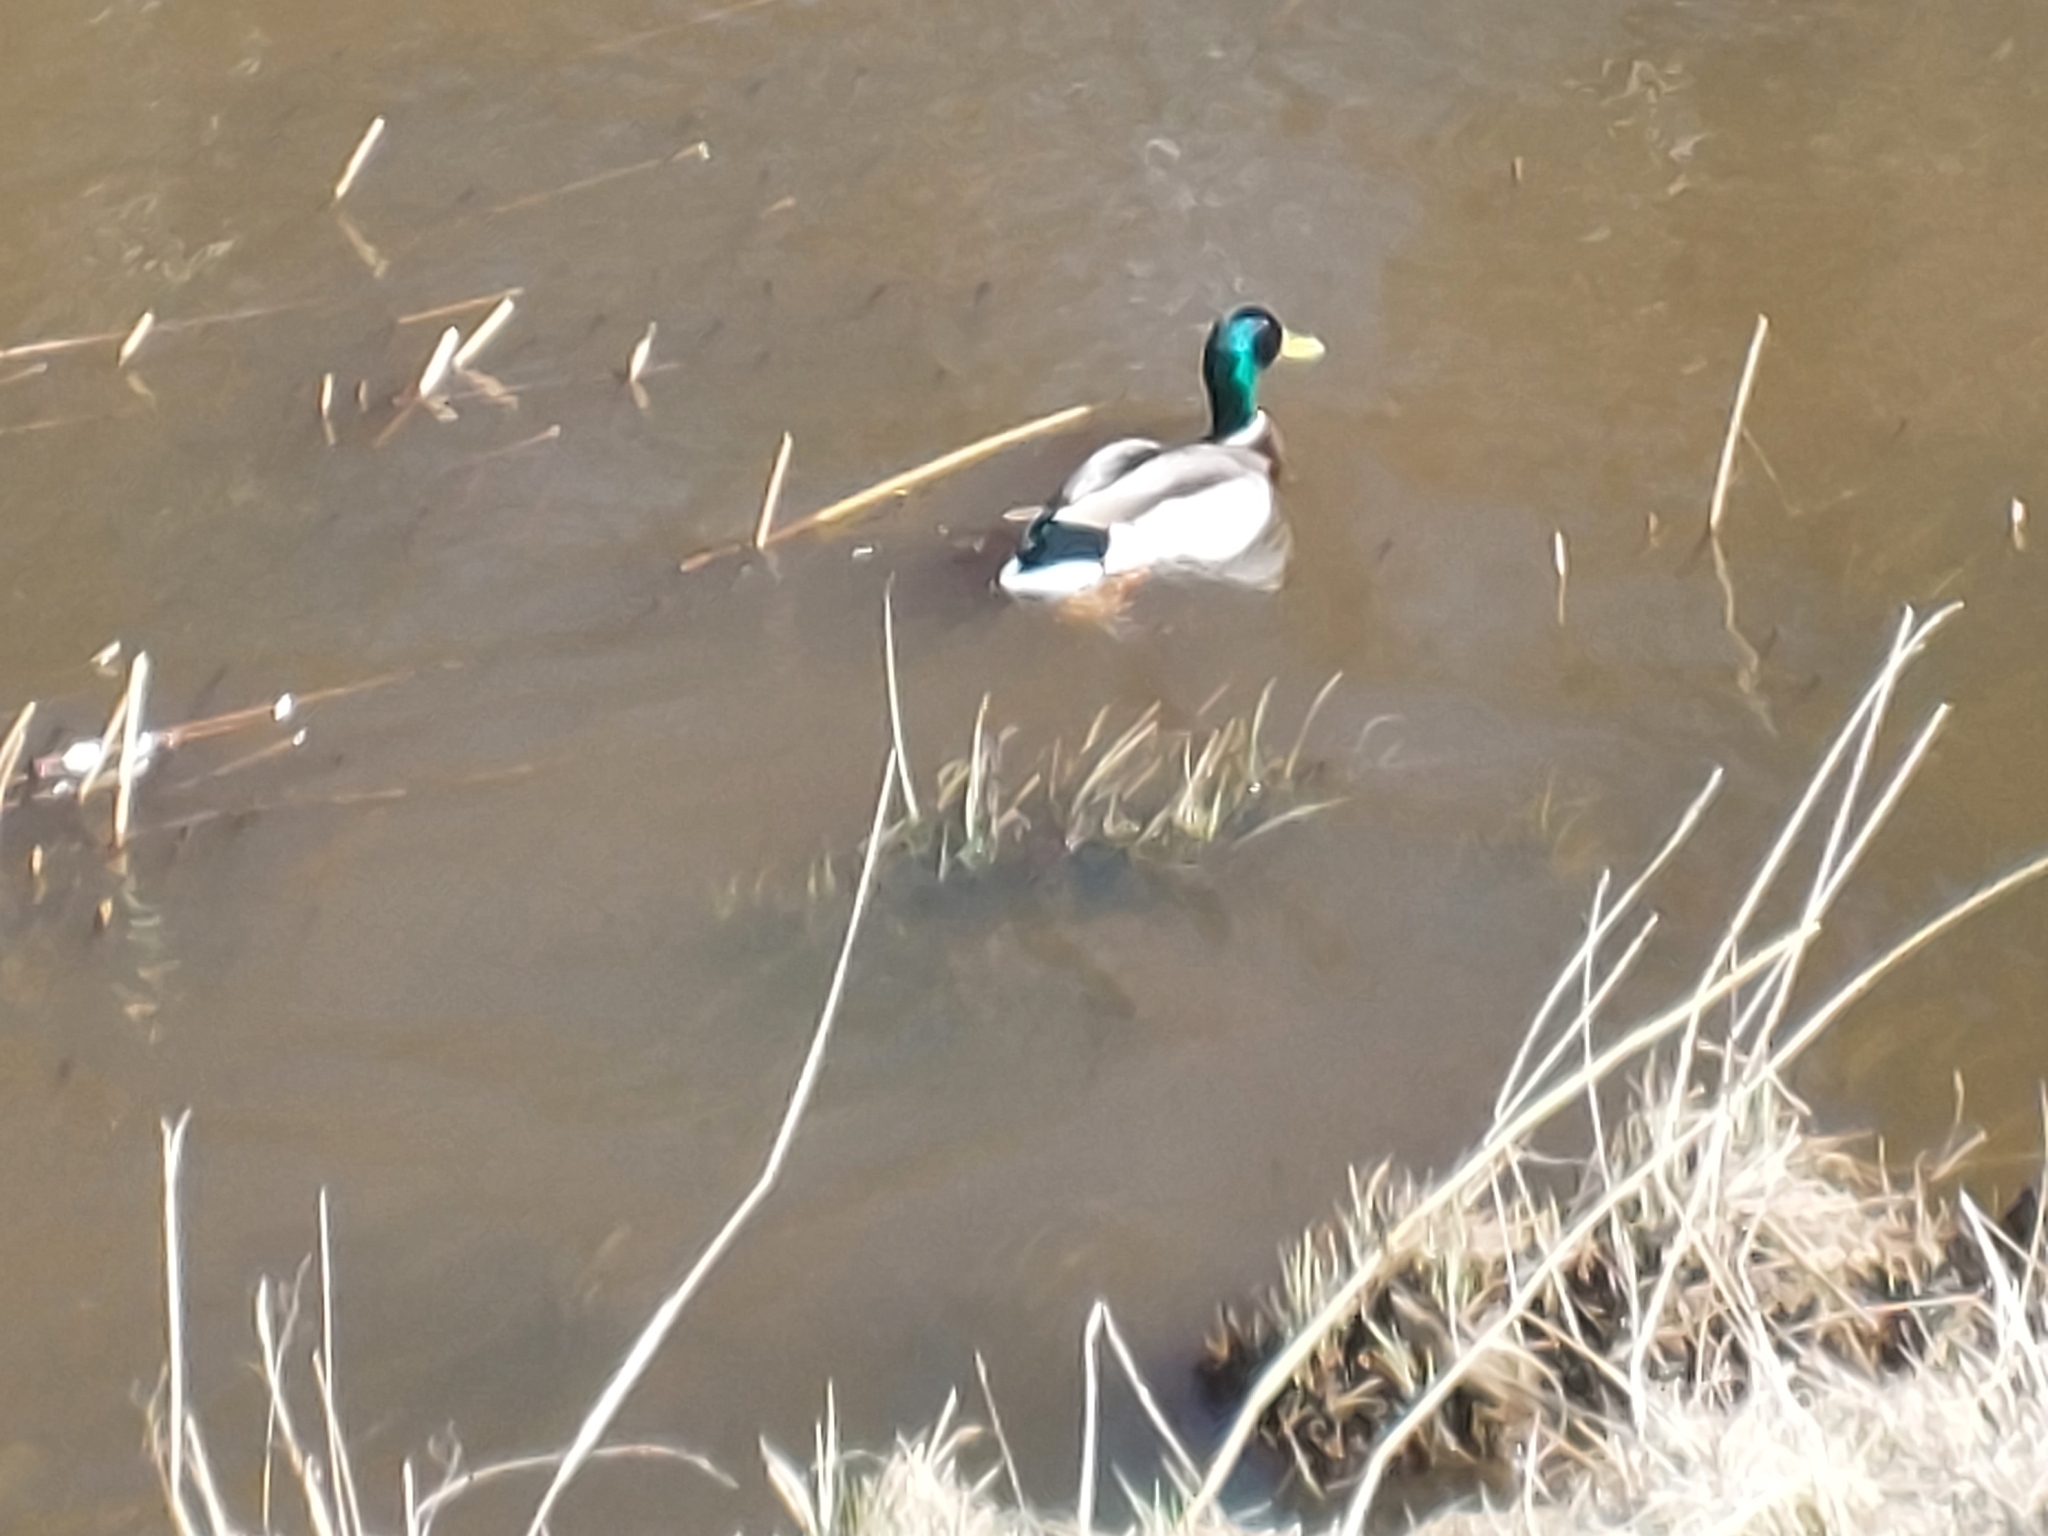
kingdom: Animalia
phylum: Chordata
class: Aves
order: Anseriformes
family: Anatidae
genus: Anas
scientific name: Anas platyrhynchos
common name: Mallard
